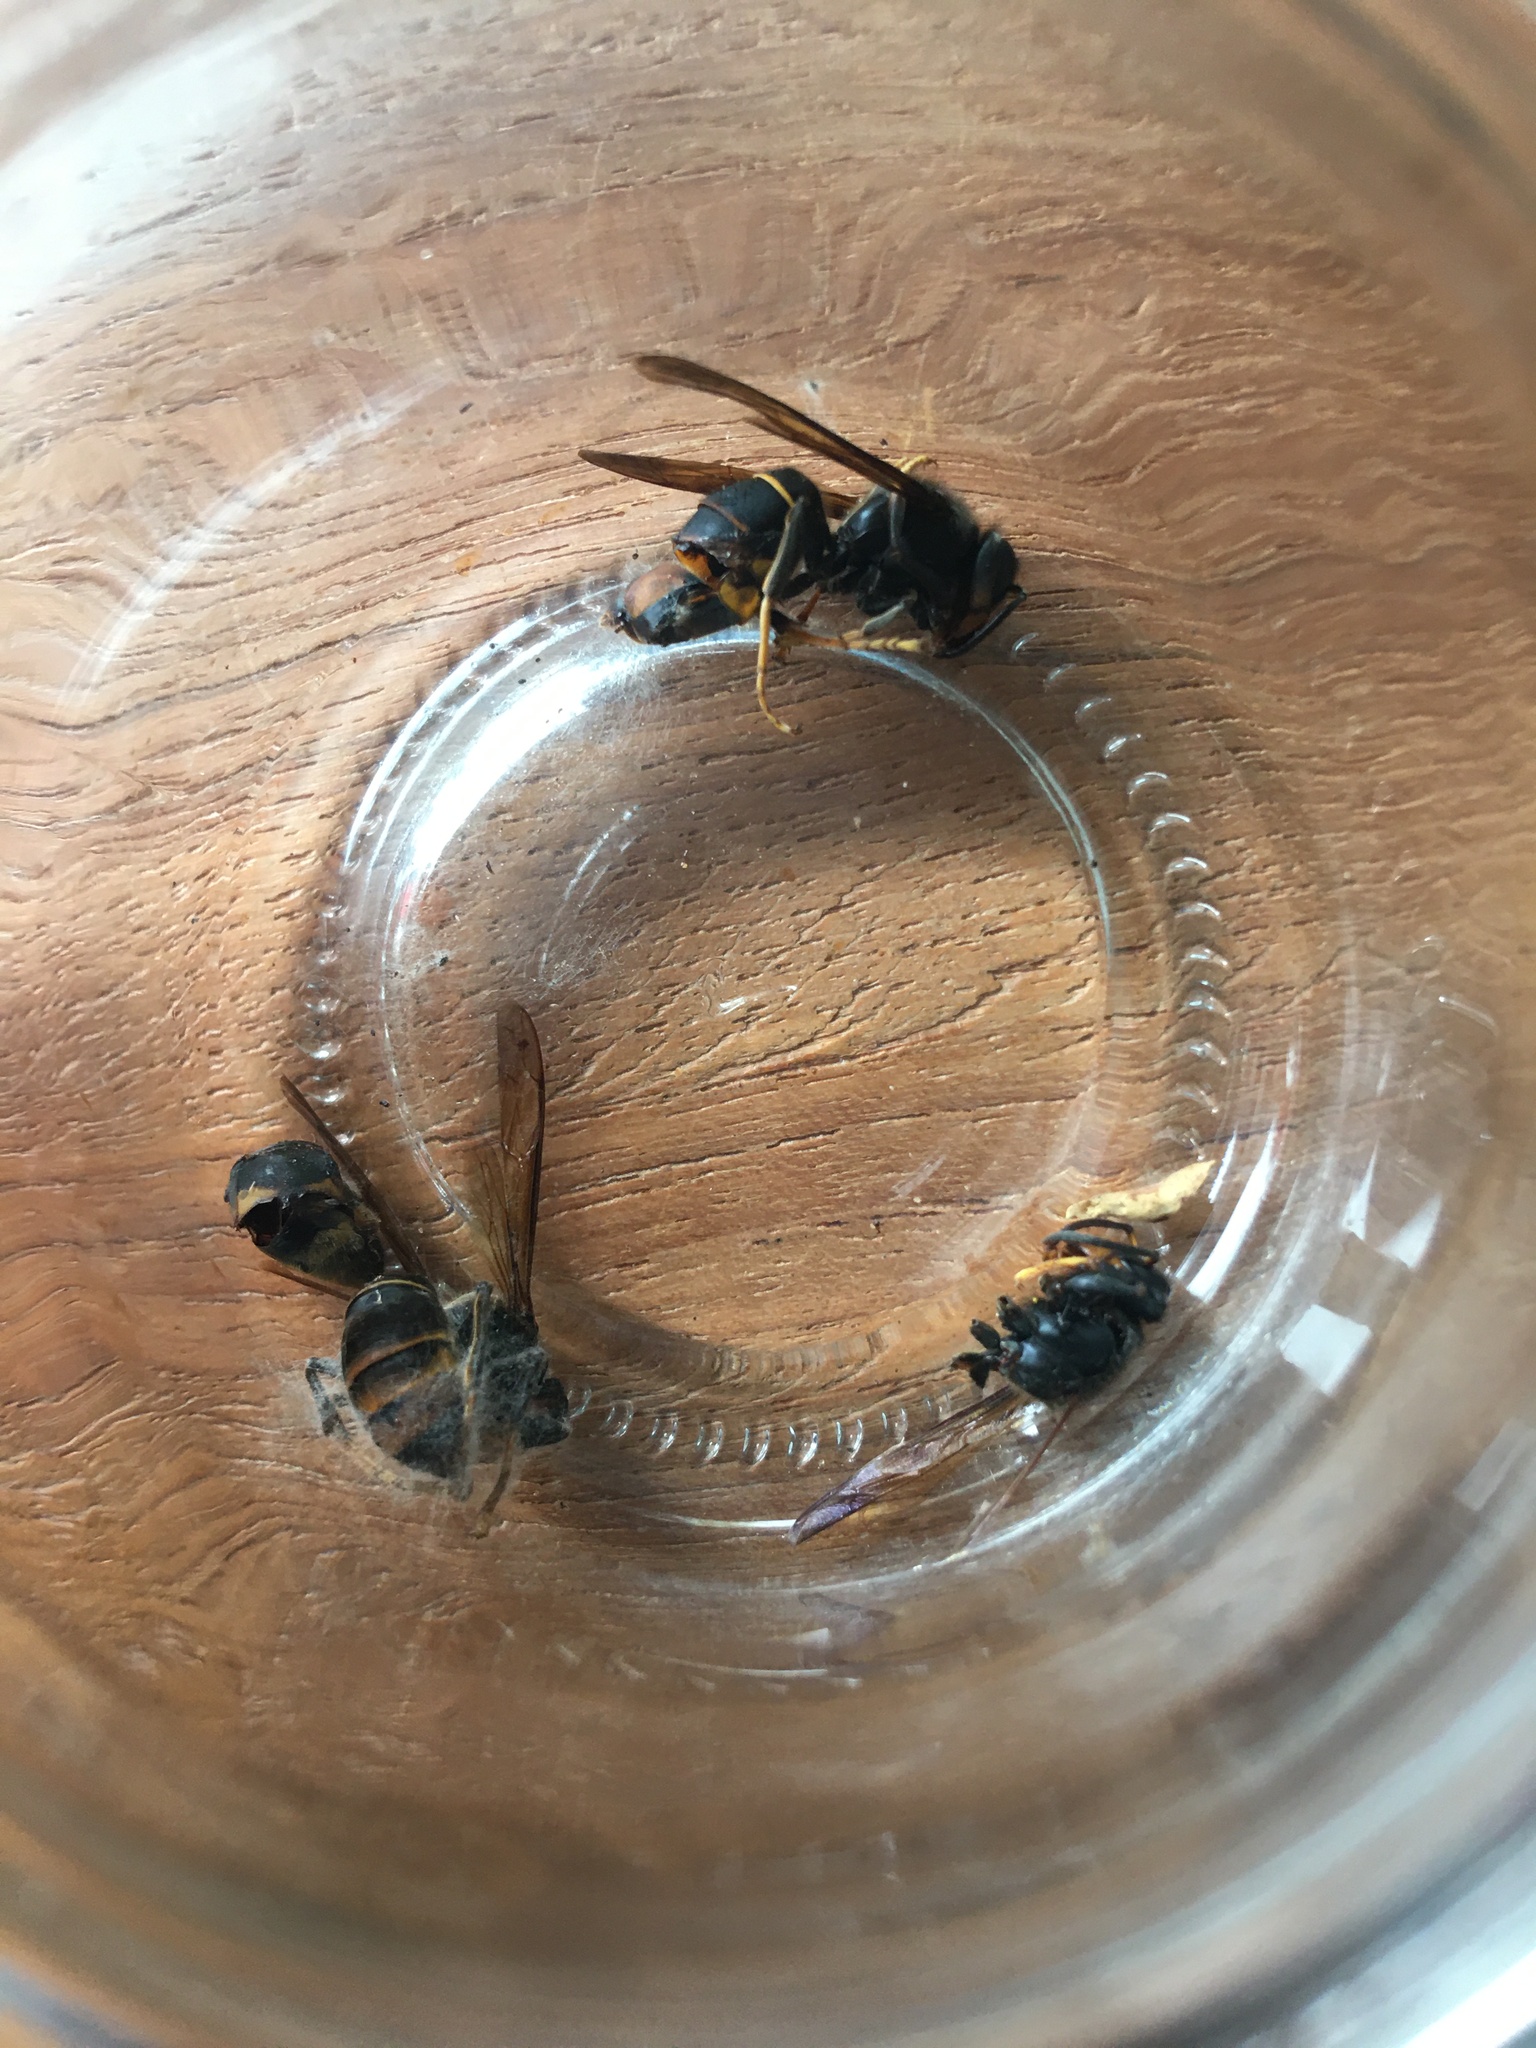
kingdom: Animalia
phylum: Arthropoda
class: Insecta
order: Hymenoptera
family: Vespidae
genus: Vespa
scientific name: Vespa velutina
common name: Asian hornet
